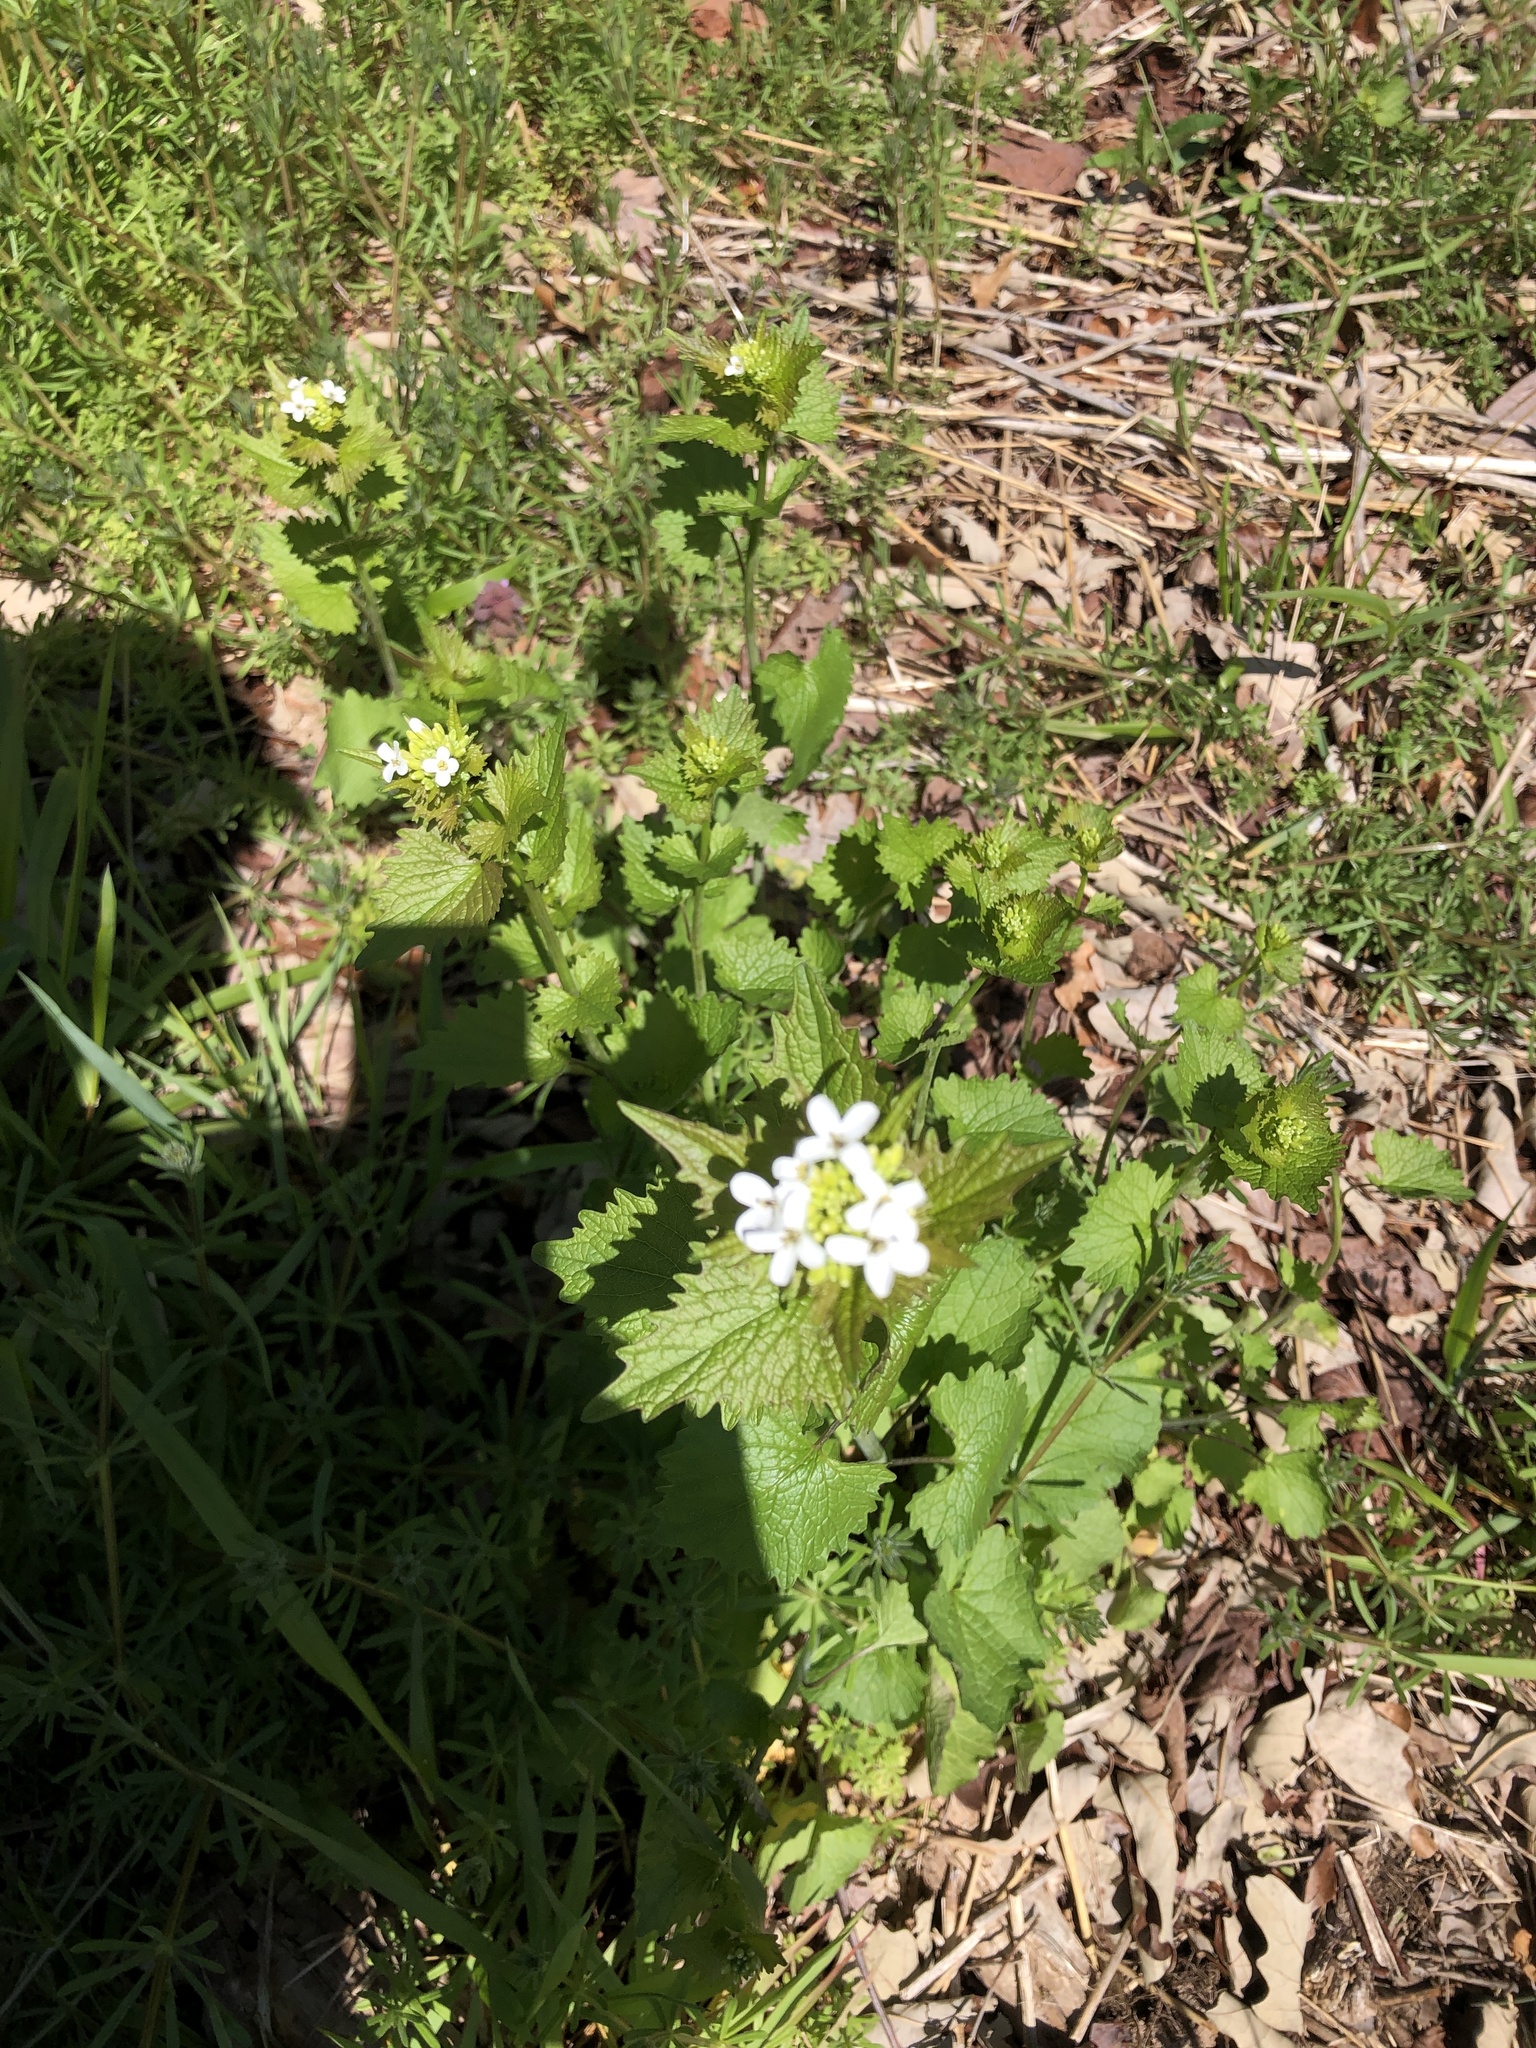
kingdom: Plantae
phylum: Tracheophyta
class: Magnoliopsida
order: Brassicales
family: Brassicaceae
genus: Alliaria
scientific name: Alliaria petiolata
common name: Garlic mustard
